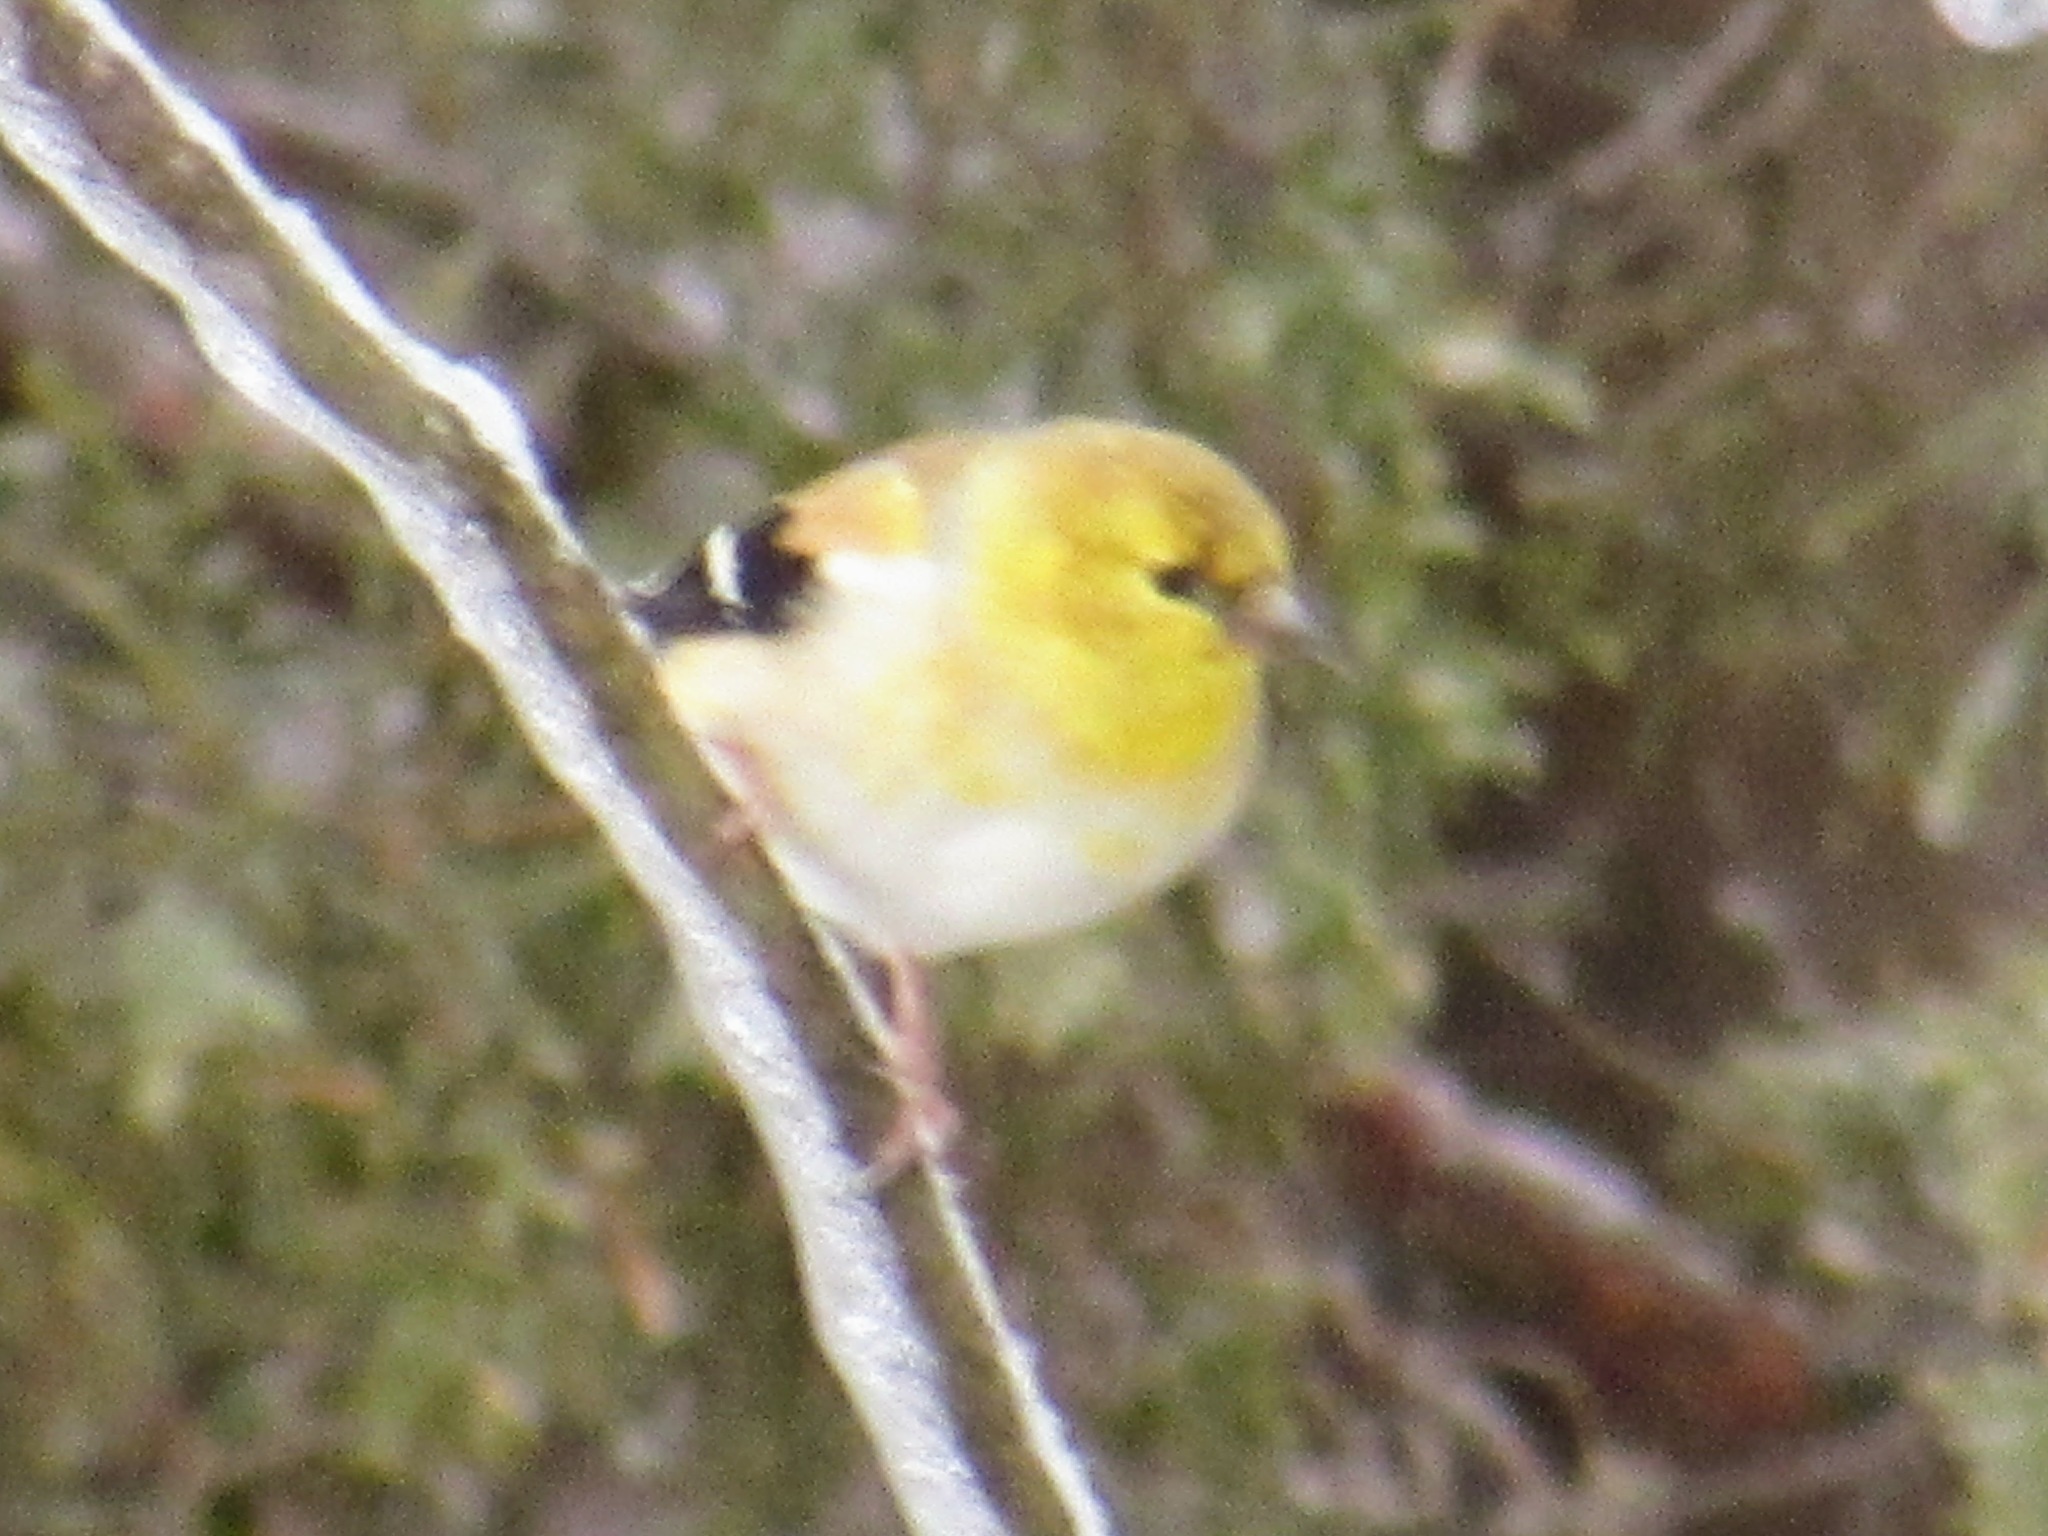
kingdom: Animalia
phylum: Chordata
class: Aves
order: Passeriformes
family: Fringillidae
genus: Spinus
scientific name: Spinus tristis
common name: American goldfinch
